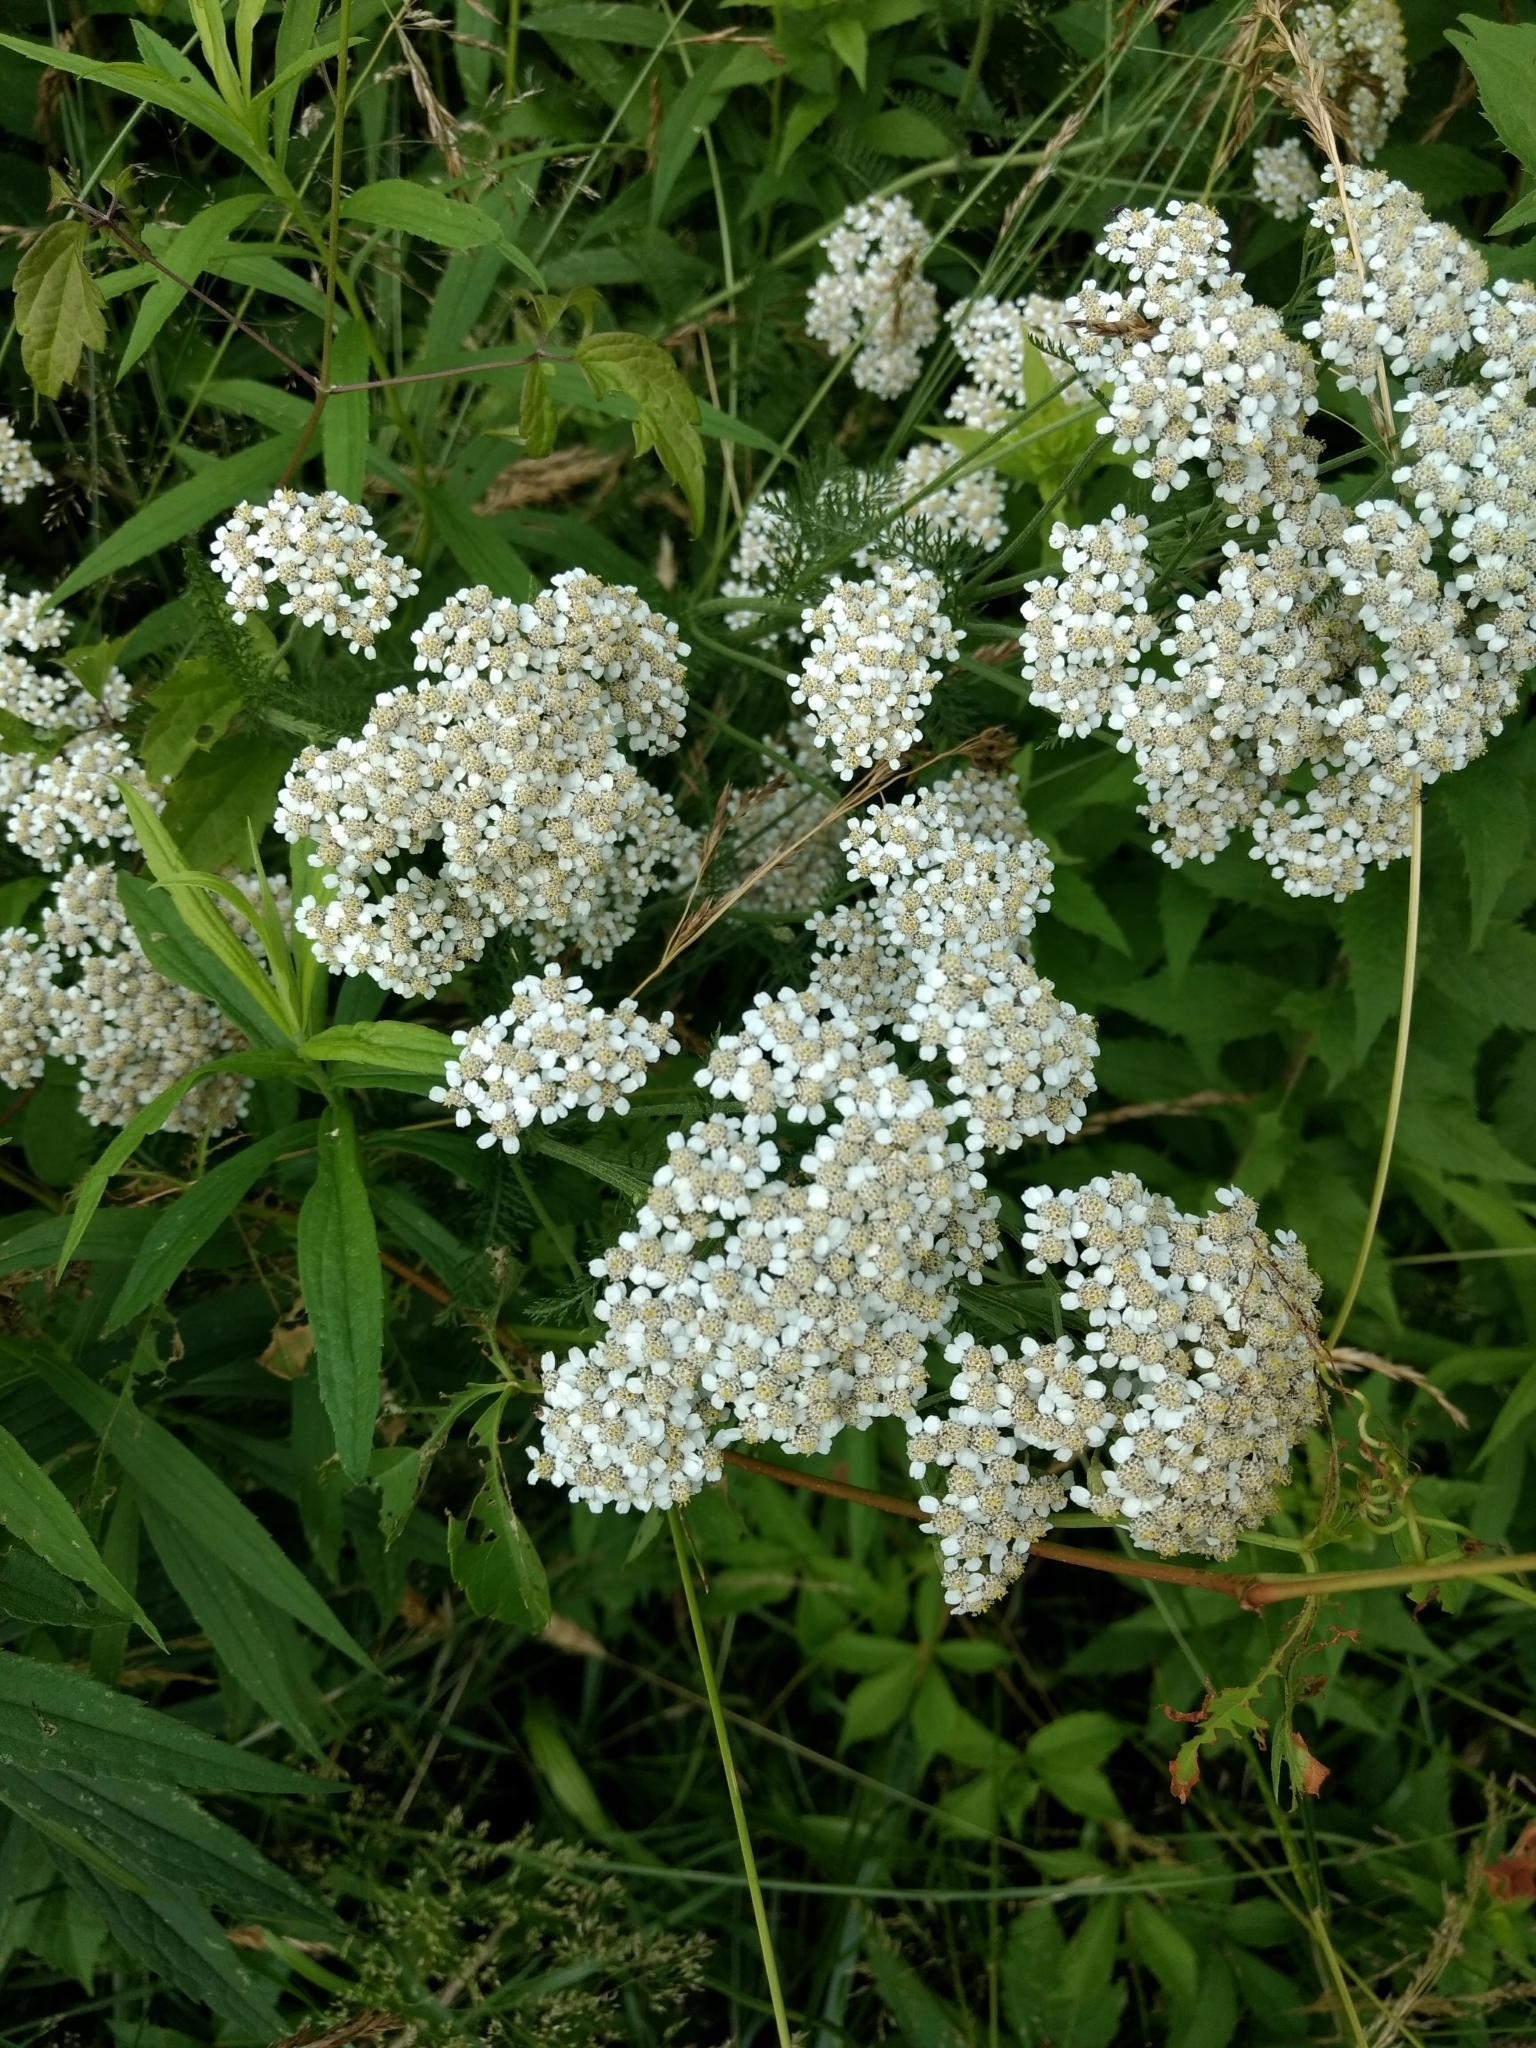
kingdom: Plantae
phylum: Tracheophyta
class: Magnoliopsida
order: Asterales
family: Asteraceae
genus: Achillea
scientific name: Achillea millefolium
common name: Yarrow
